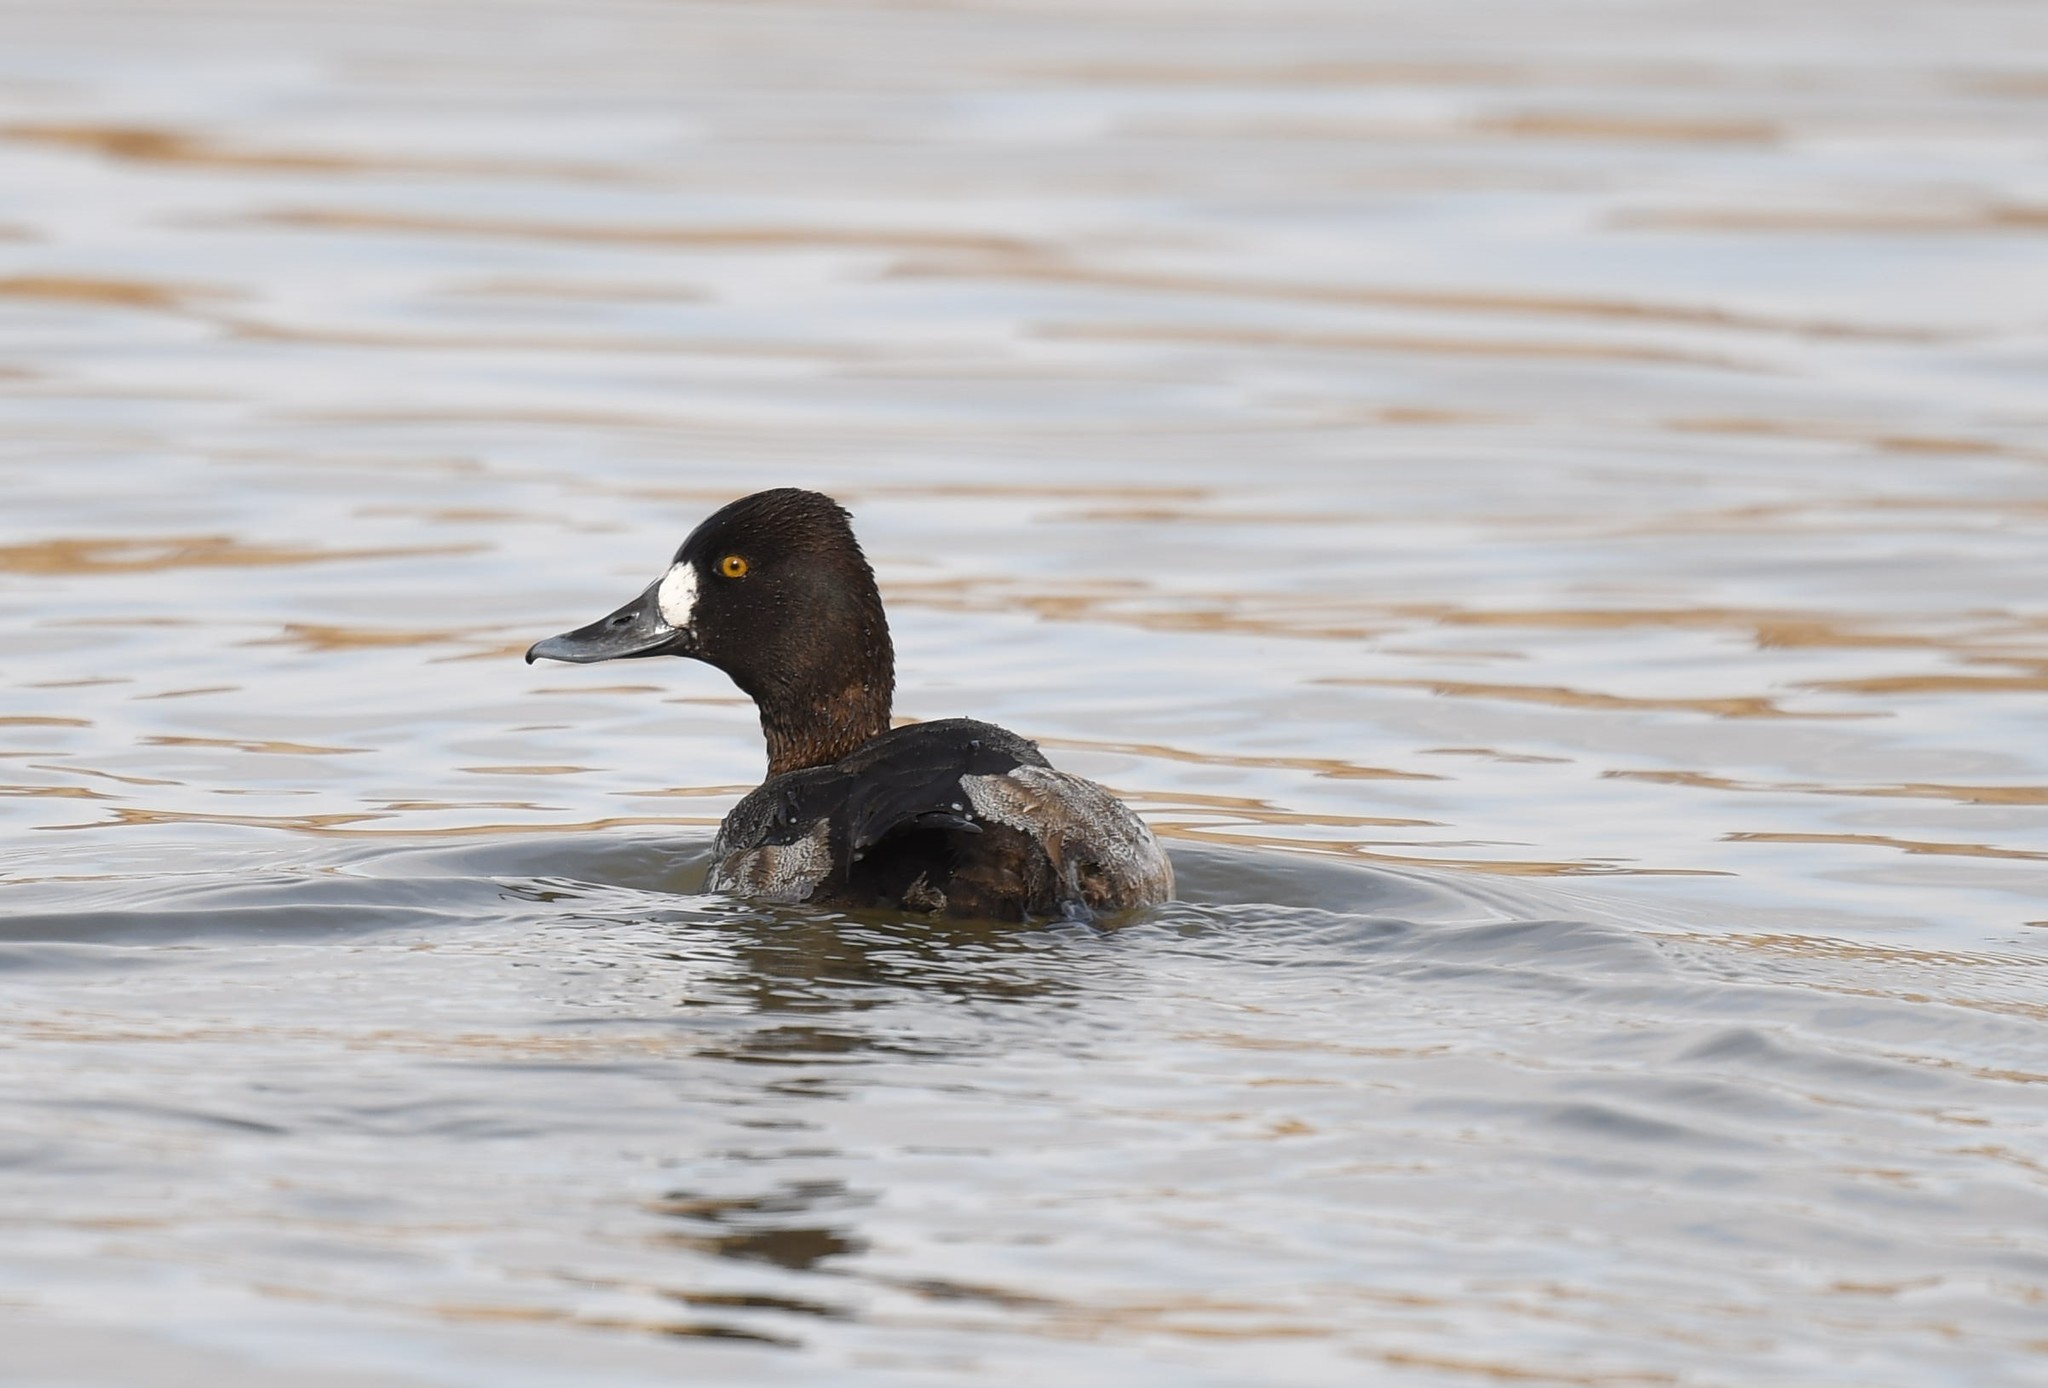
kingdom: Animalia
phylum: Chordata
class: Aves
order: Anseriformes
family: Anatidae
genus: Aythya
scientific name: Aythya affinis
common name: Lesser scaup
